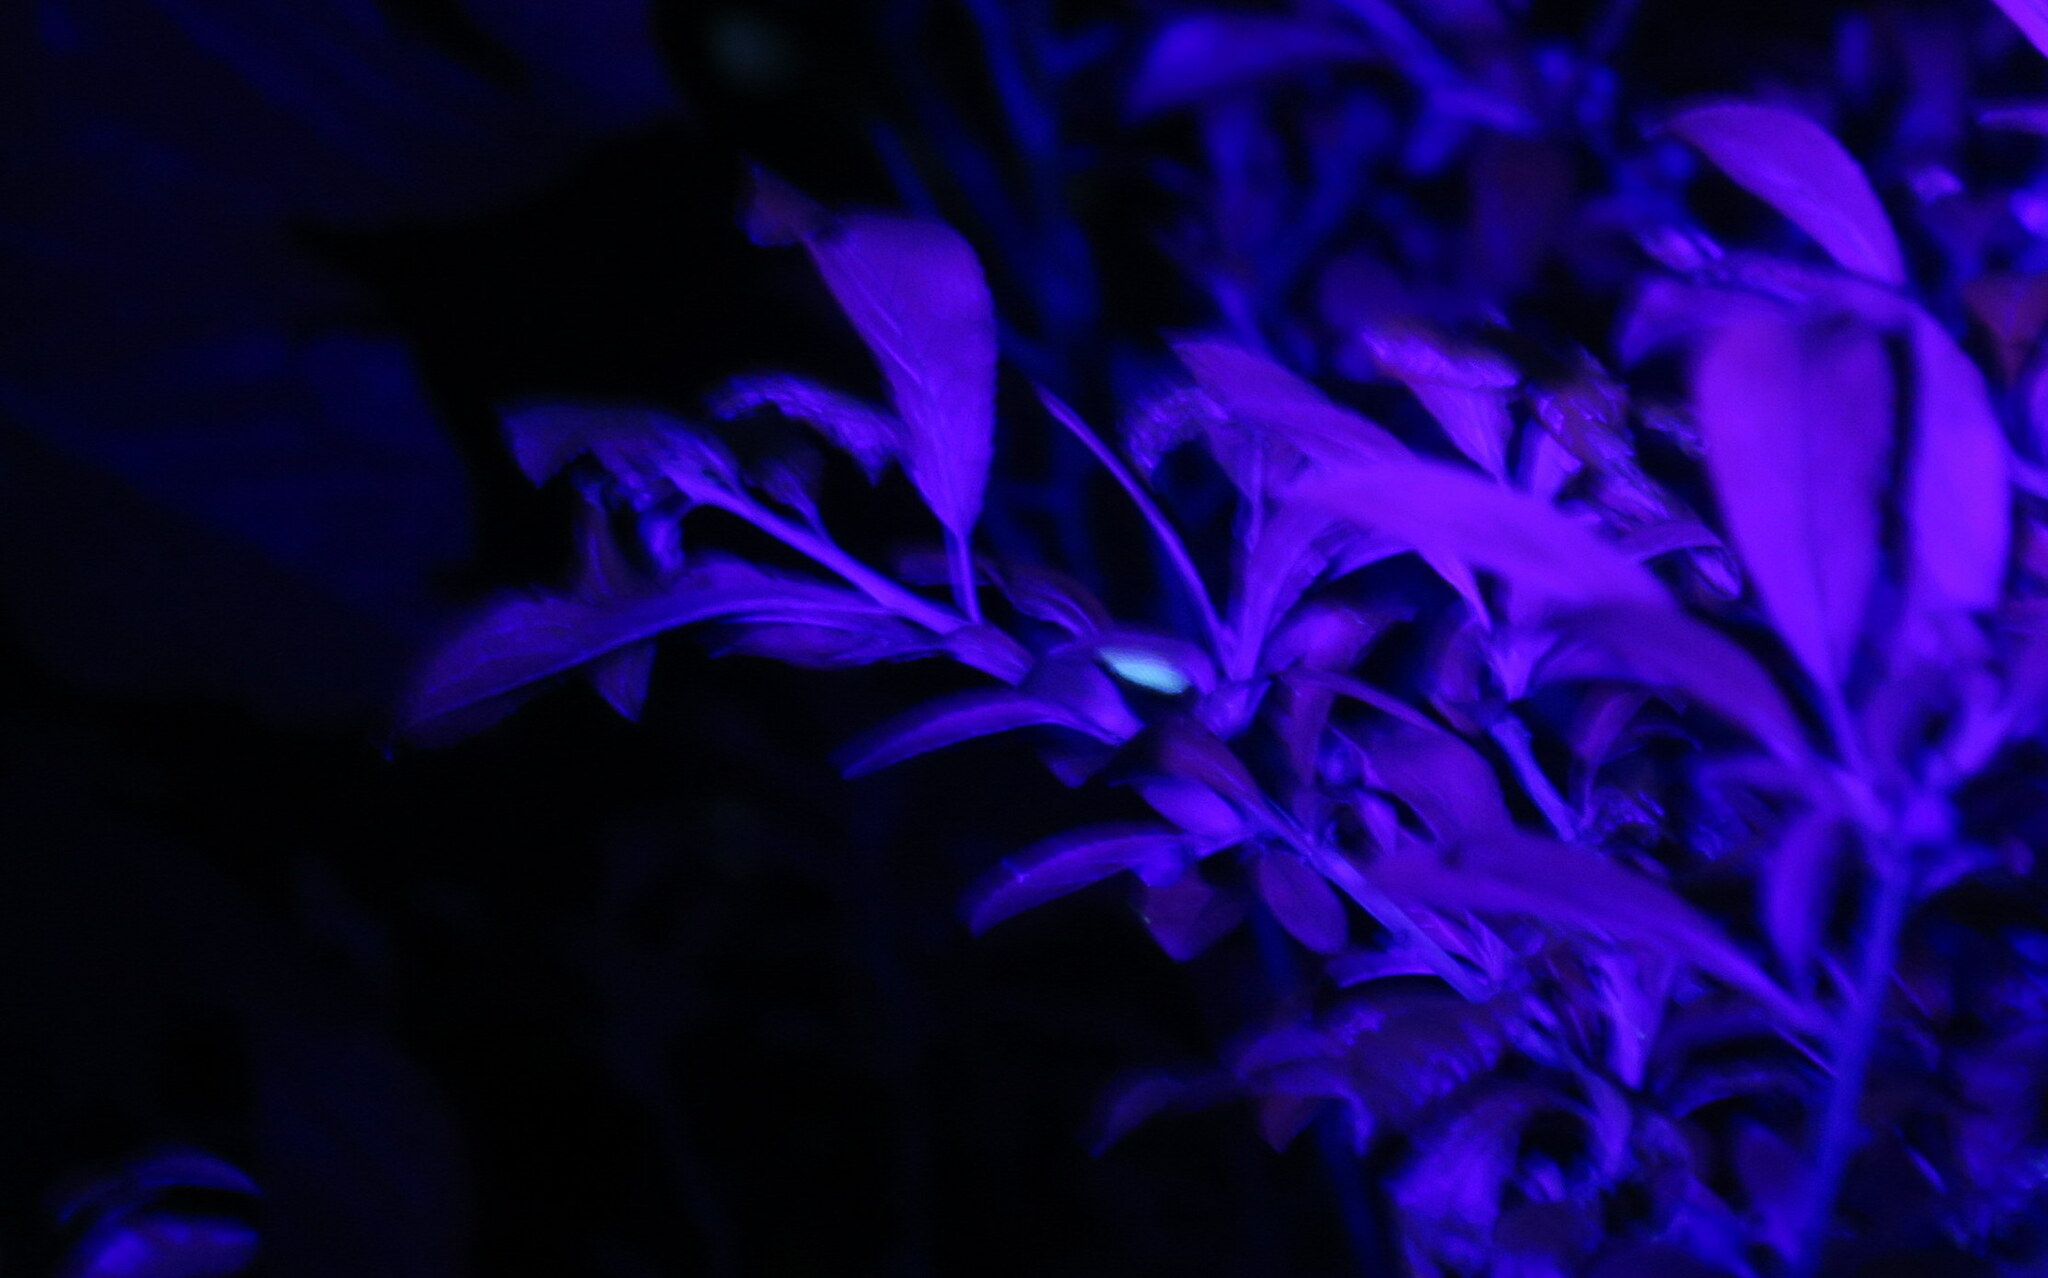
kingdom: Animalia
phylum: Arthropoda
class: Insecta
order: Lepidoptera
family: Lycaenidae
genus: Thecla
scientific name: Thecla betulae
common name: Brown hairstreak
